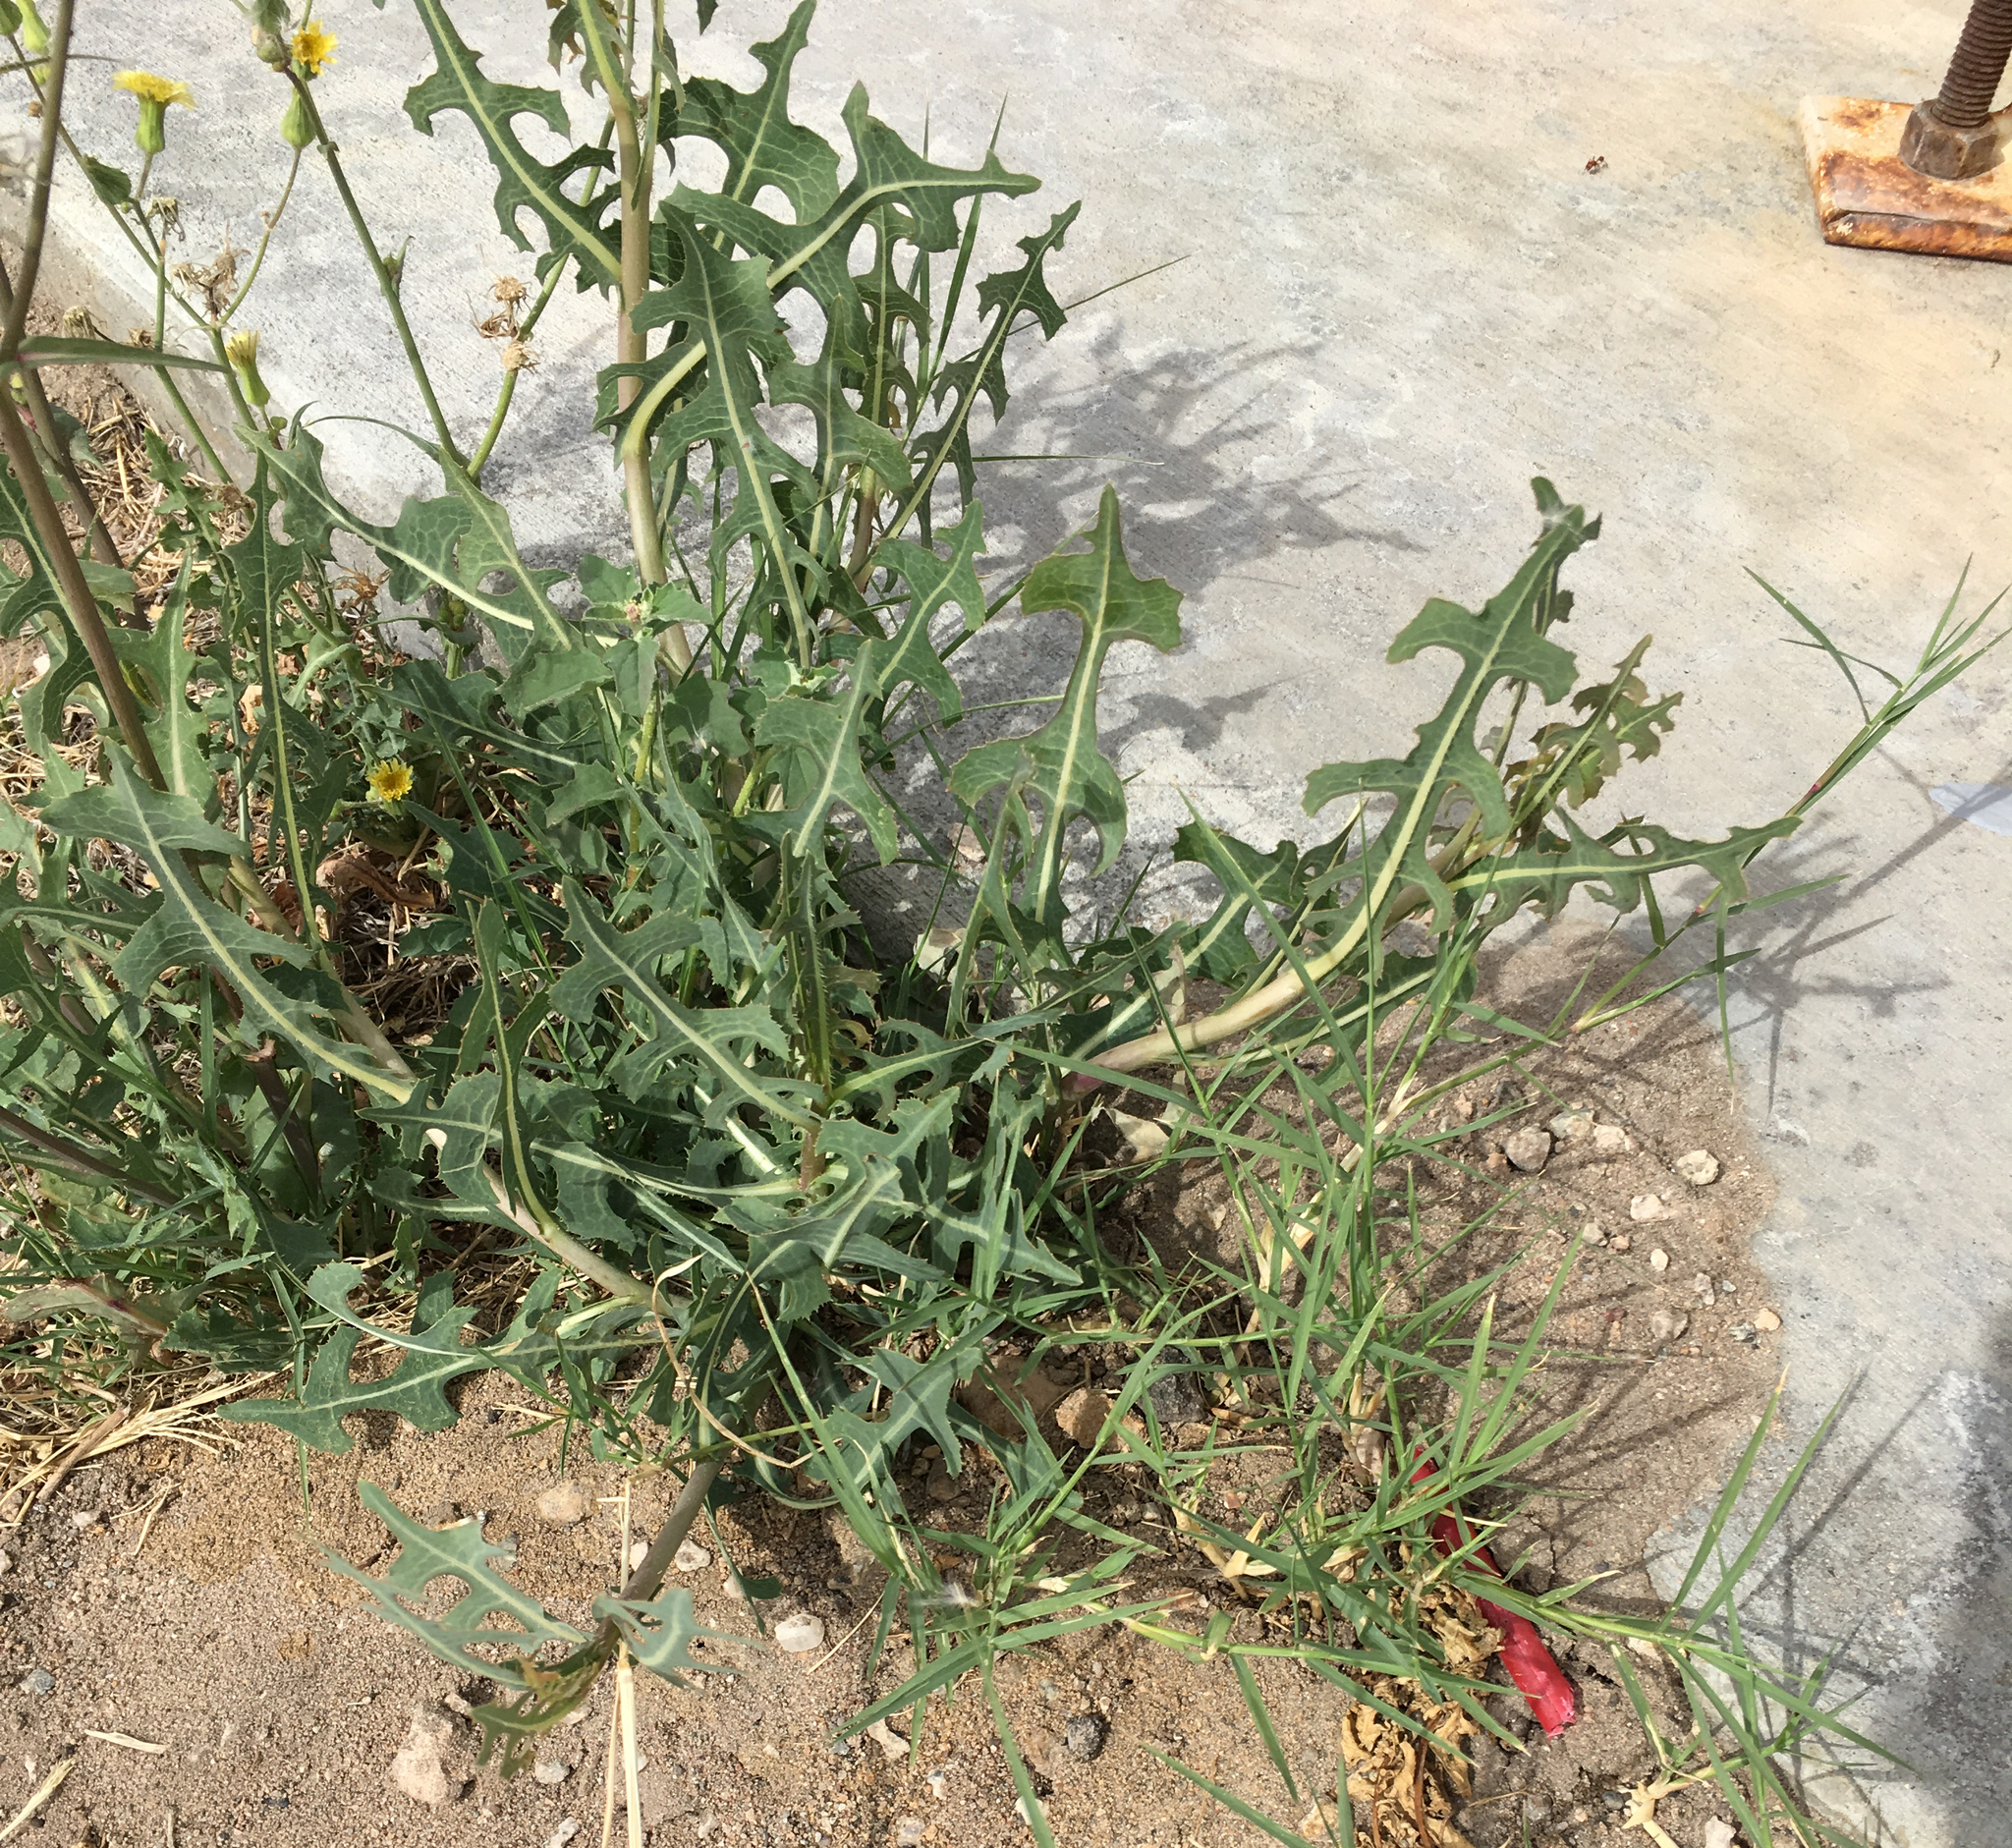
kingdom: Plantae
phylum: Tracheophyta
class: Magnoliopsida
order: Asterales
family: Asteraceae
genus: Lactuca
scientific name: Lactuca serriola
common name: Prickly lettuce
